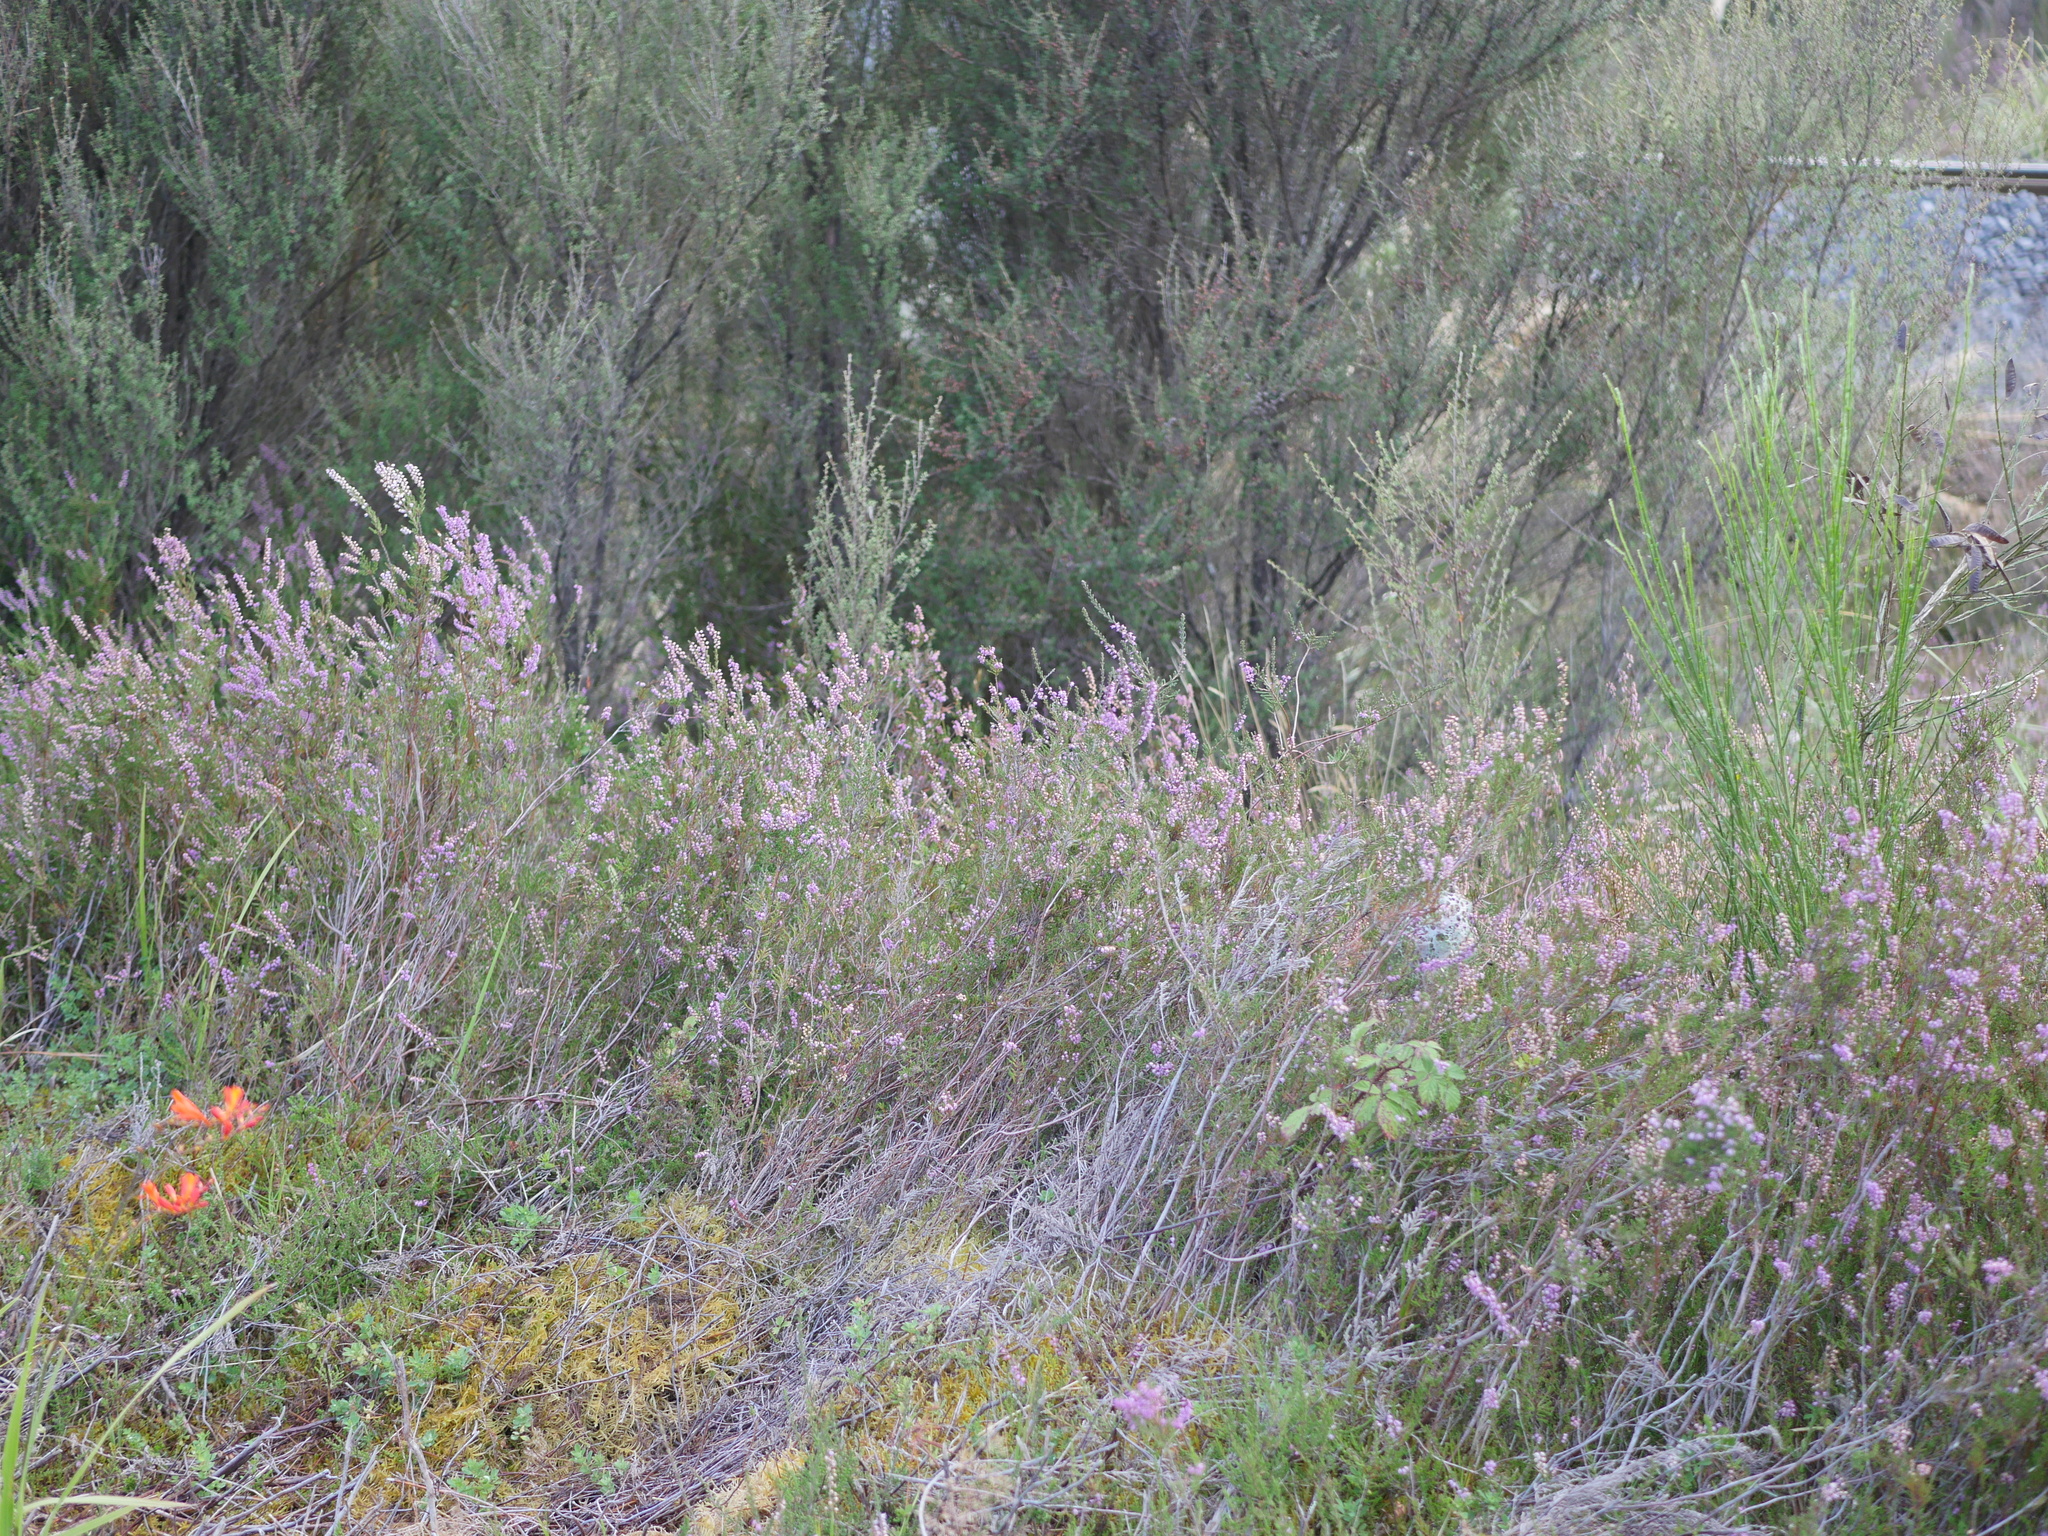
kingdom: Plantae
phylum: Tracheophyta
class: Magnoliopsida
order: Ericales
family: Ericaceae
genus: Calluna
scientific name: Calluna vulgaris
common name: Heather
